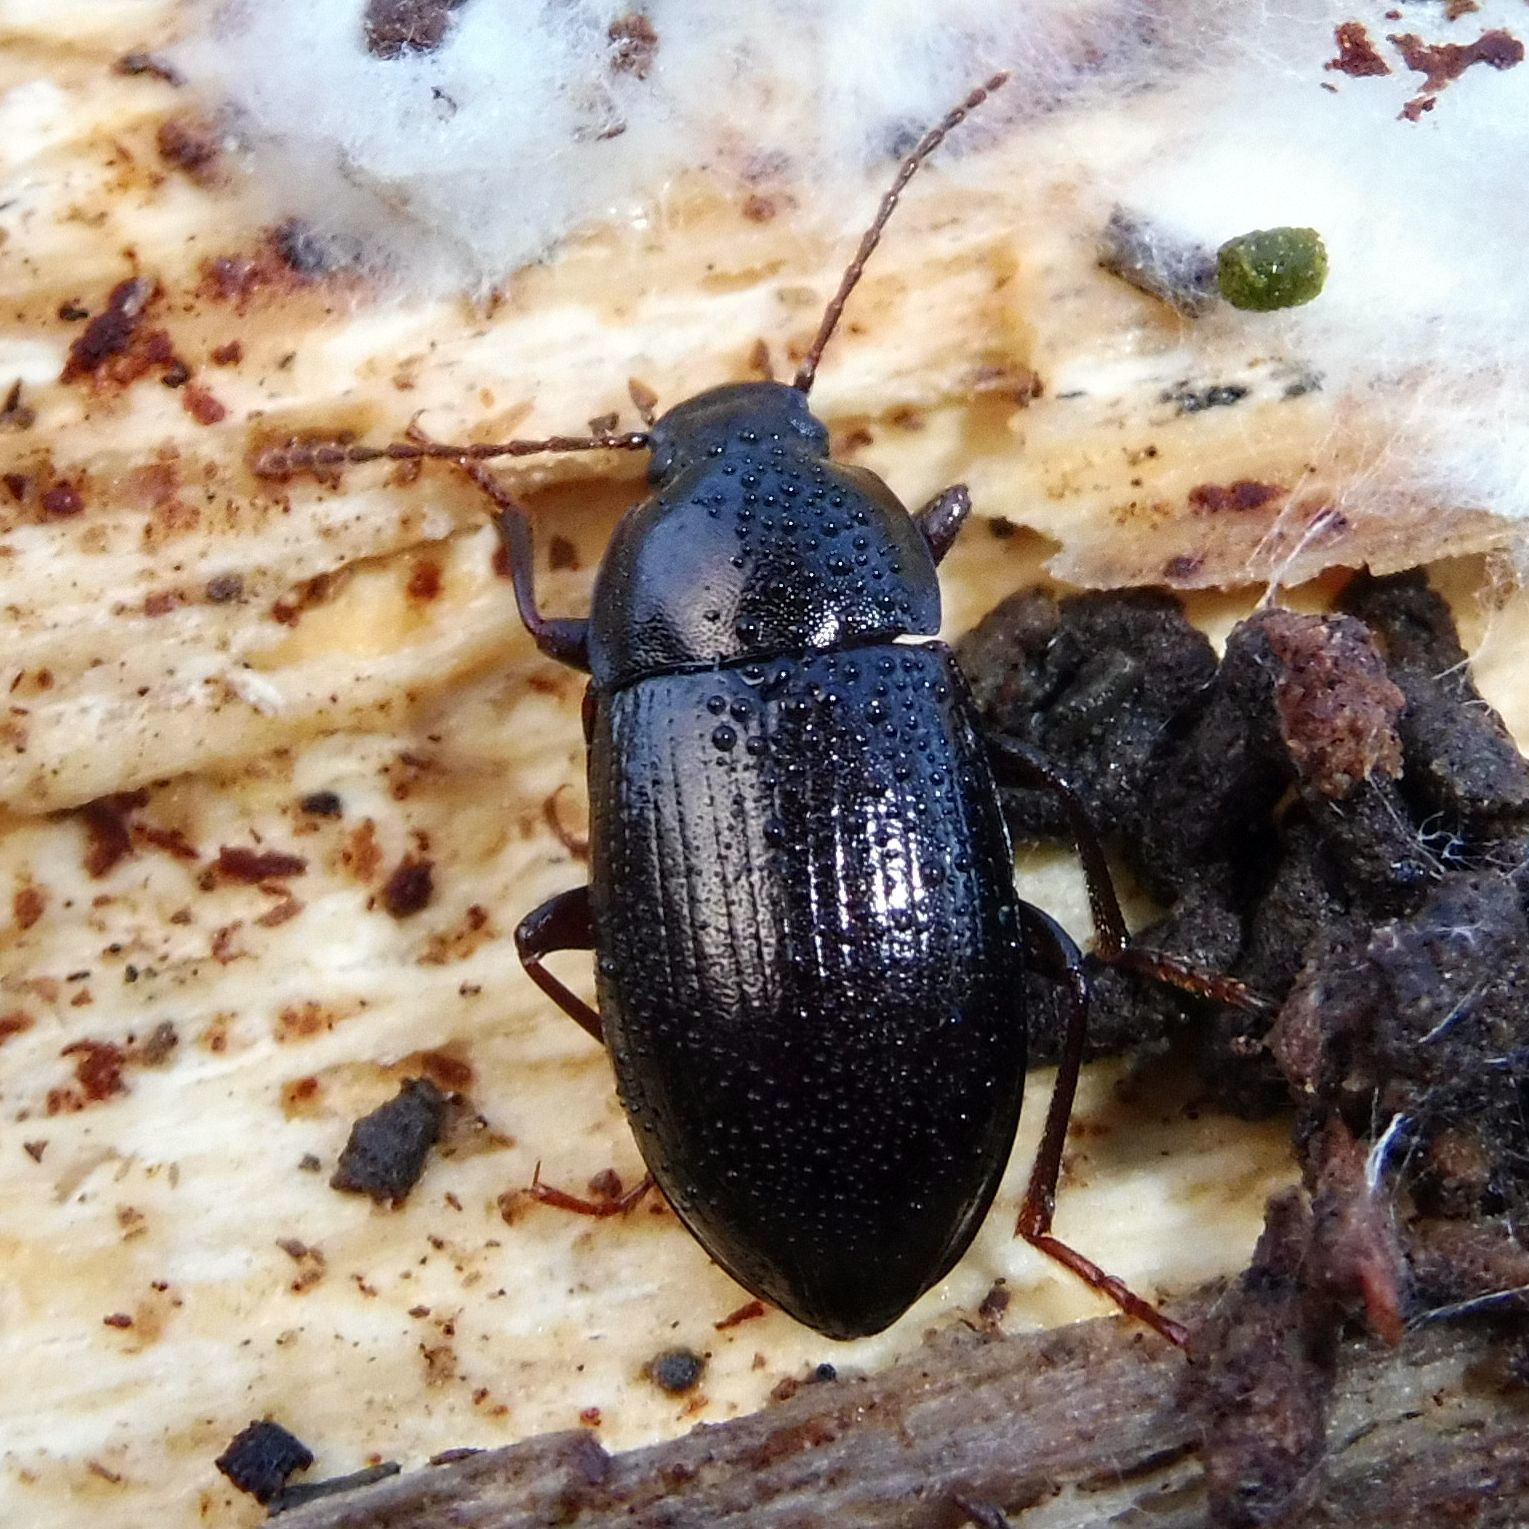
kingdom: Animalia
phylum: Arthropoda
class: Insecta
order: Coleoptera
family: Tenebrionidae
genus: Nalassus
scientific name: Nalassus laevioctostriatus
